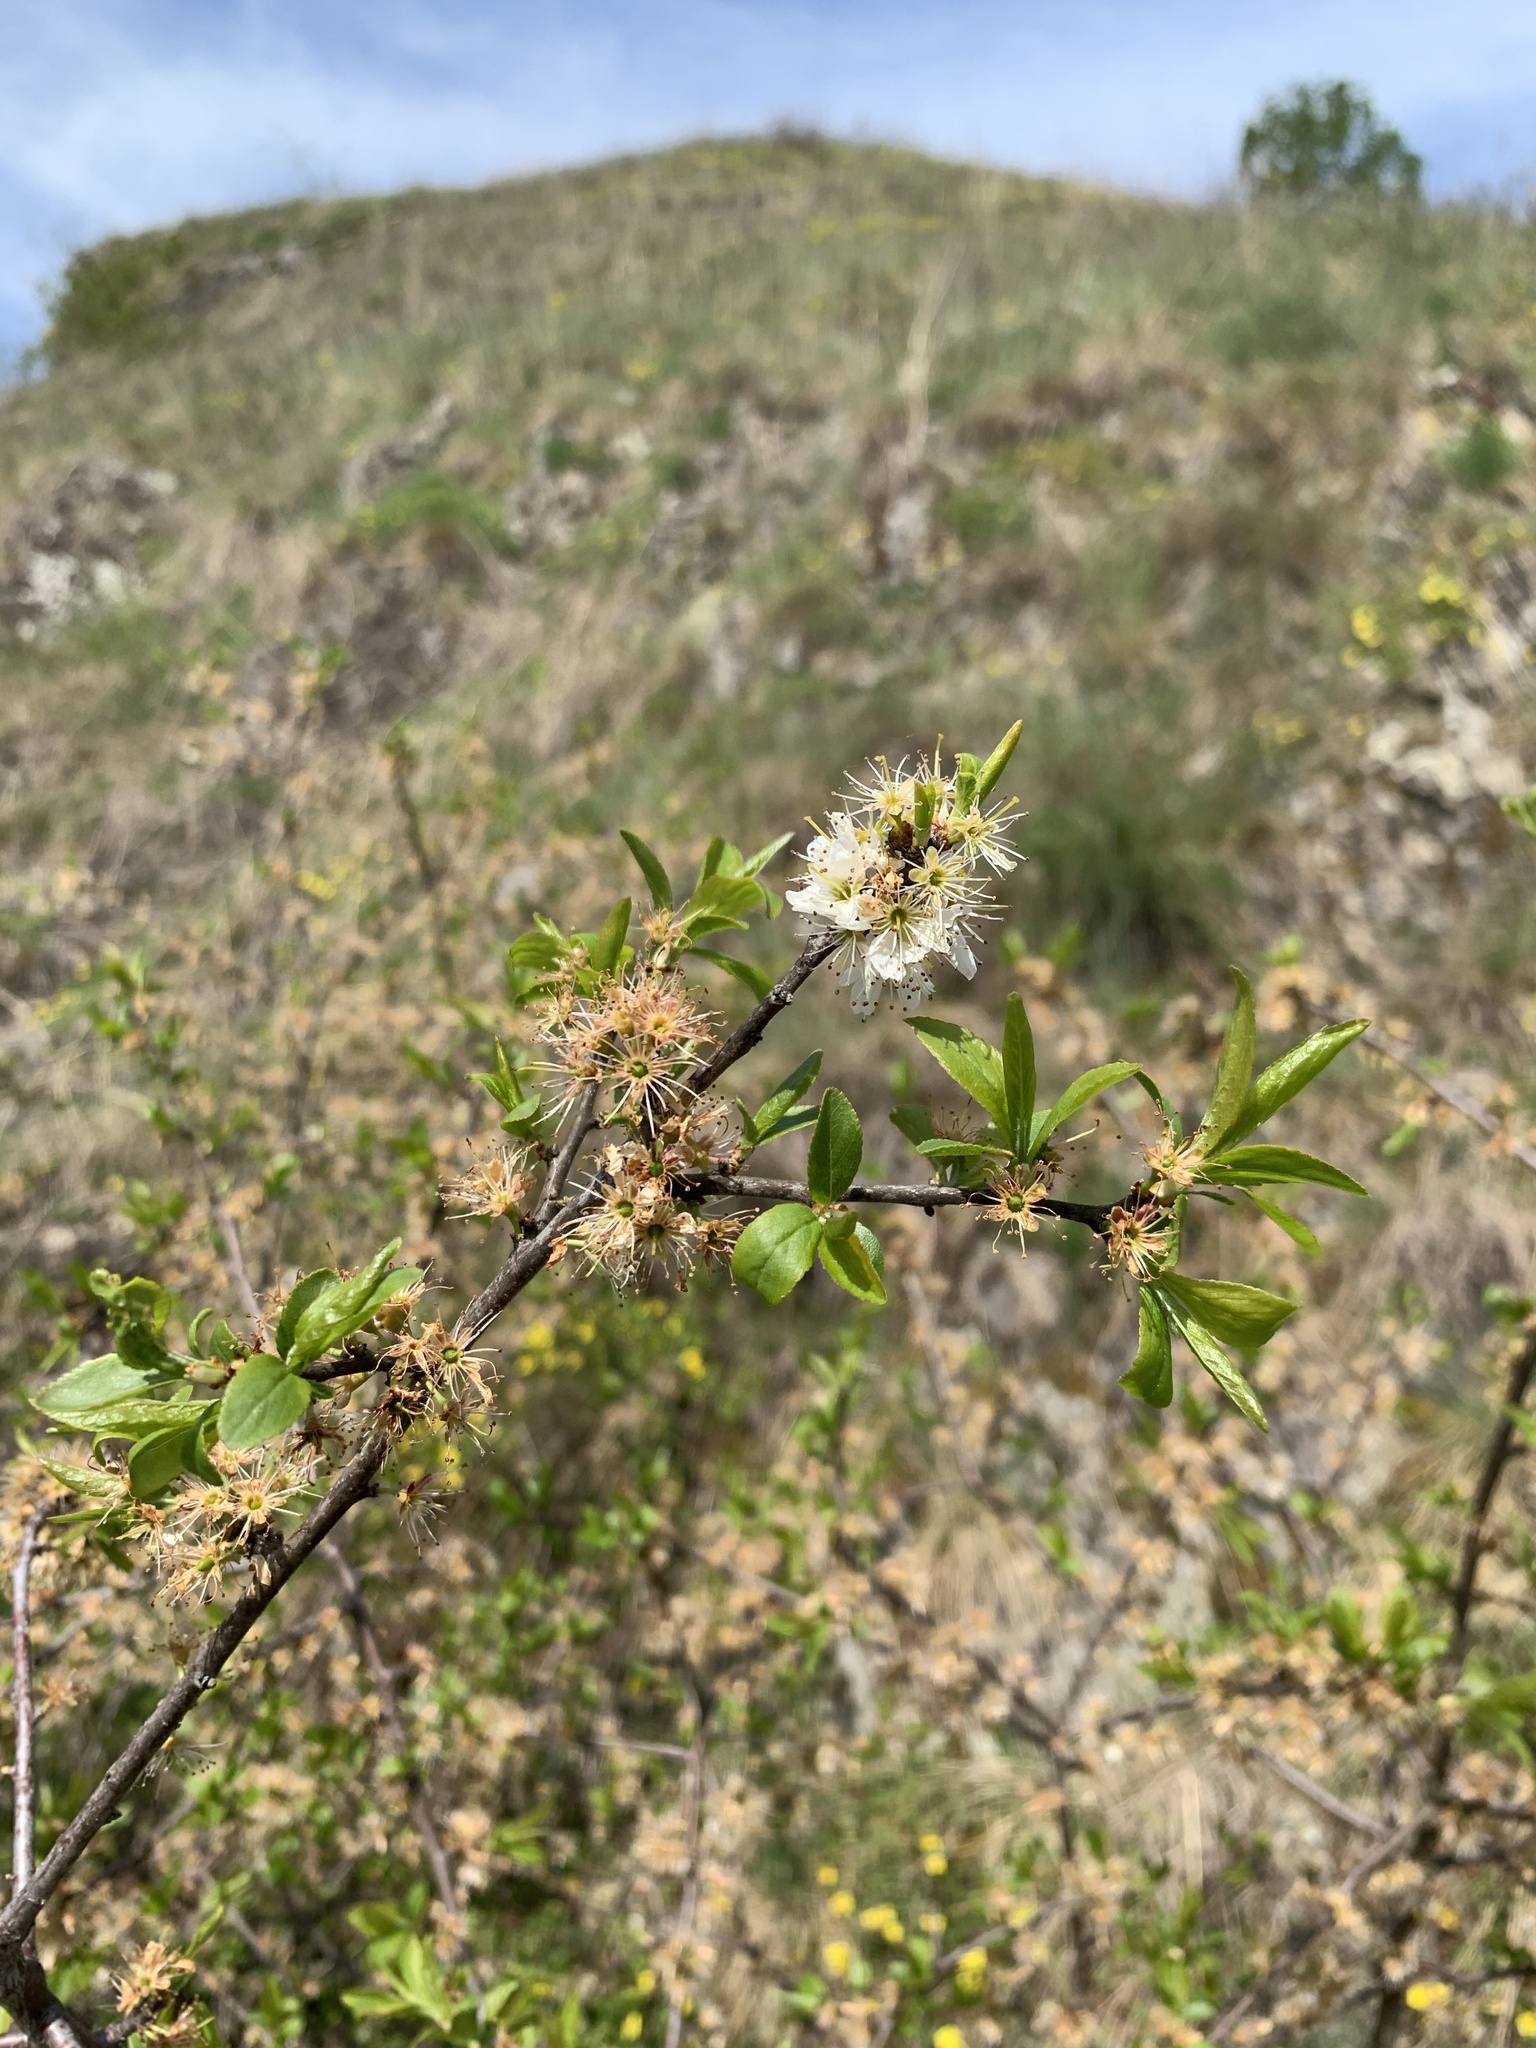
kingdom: Plantae
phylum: Tracheophyta
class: Magnoliopsida
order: Rosales
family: Rosaceae
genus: Prunus
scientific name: Prunus spinosa
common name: Blackthorn
